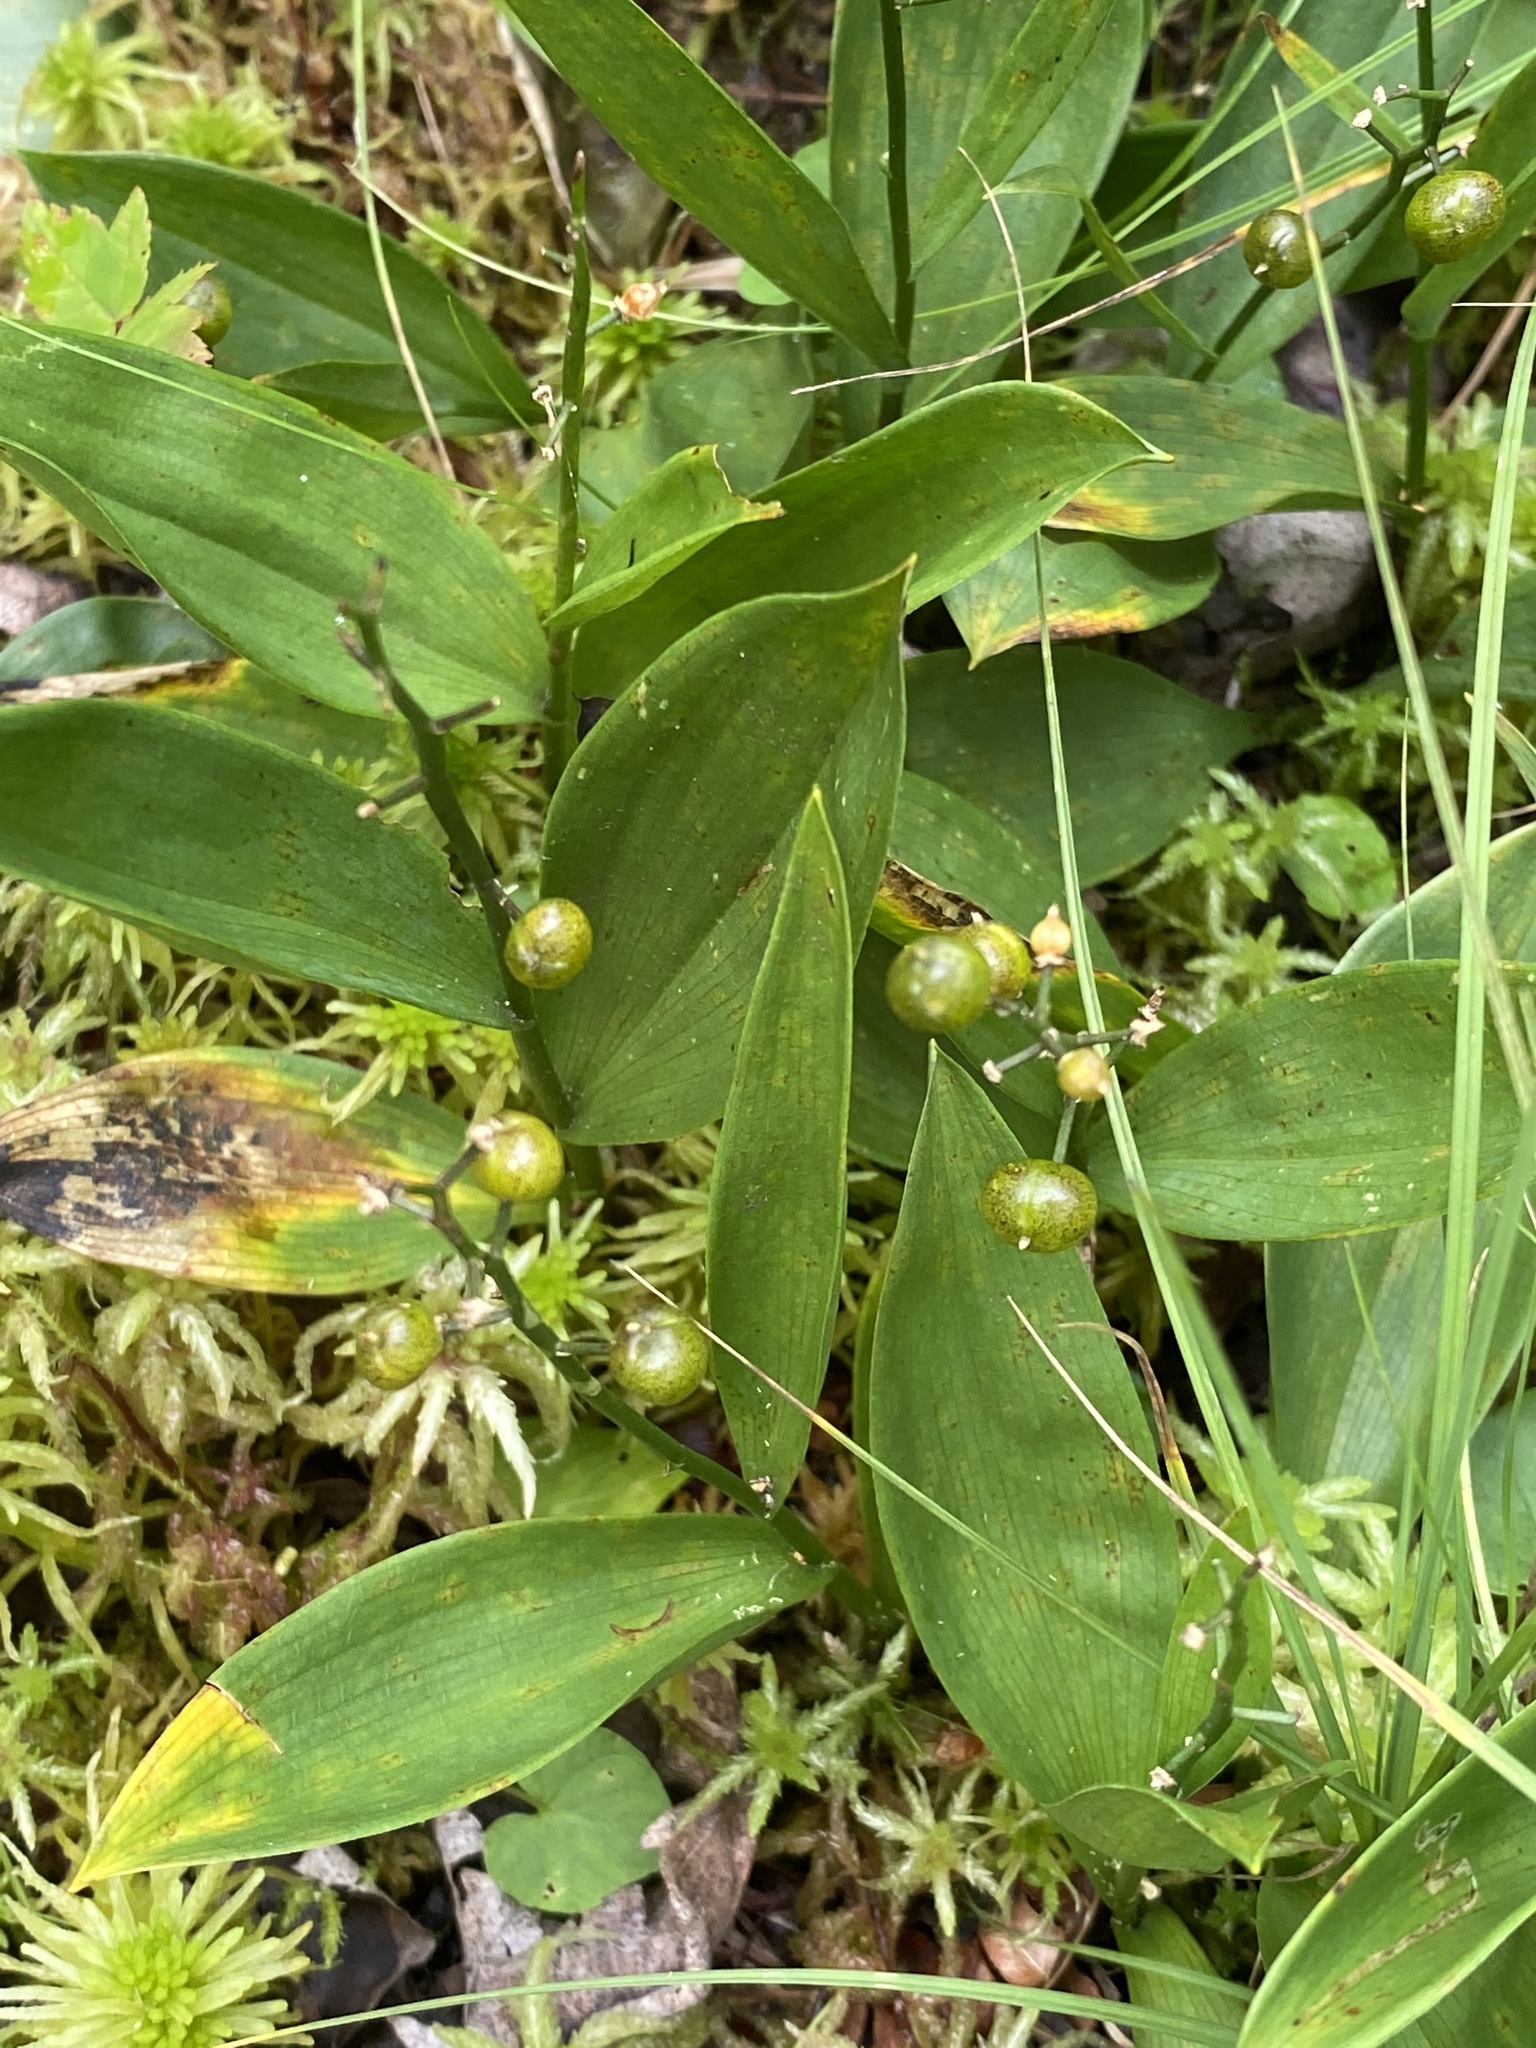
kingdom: Plantae
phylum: Tracheophyta
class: Liliopsida
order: Asparagales
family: Asparagaceae
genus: Maianthemum
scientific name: Maianthemum trifolium
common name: Swamp false solomon's seal
